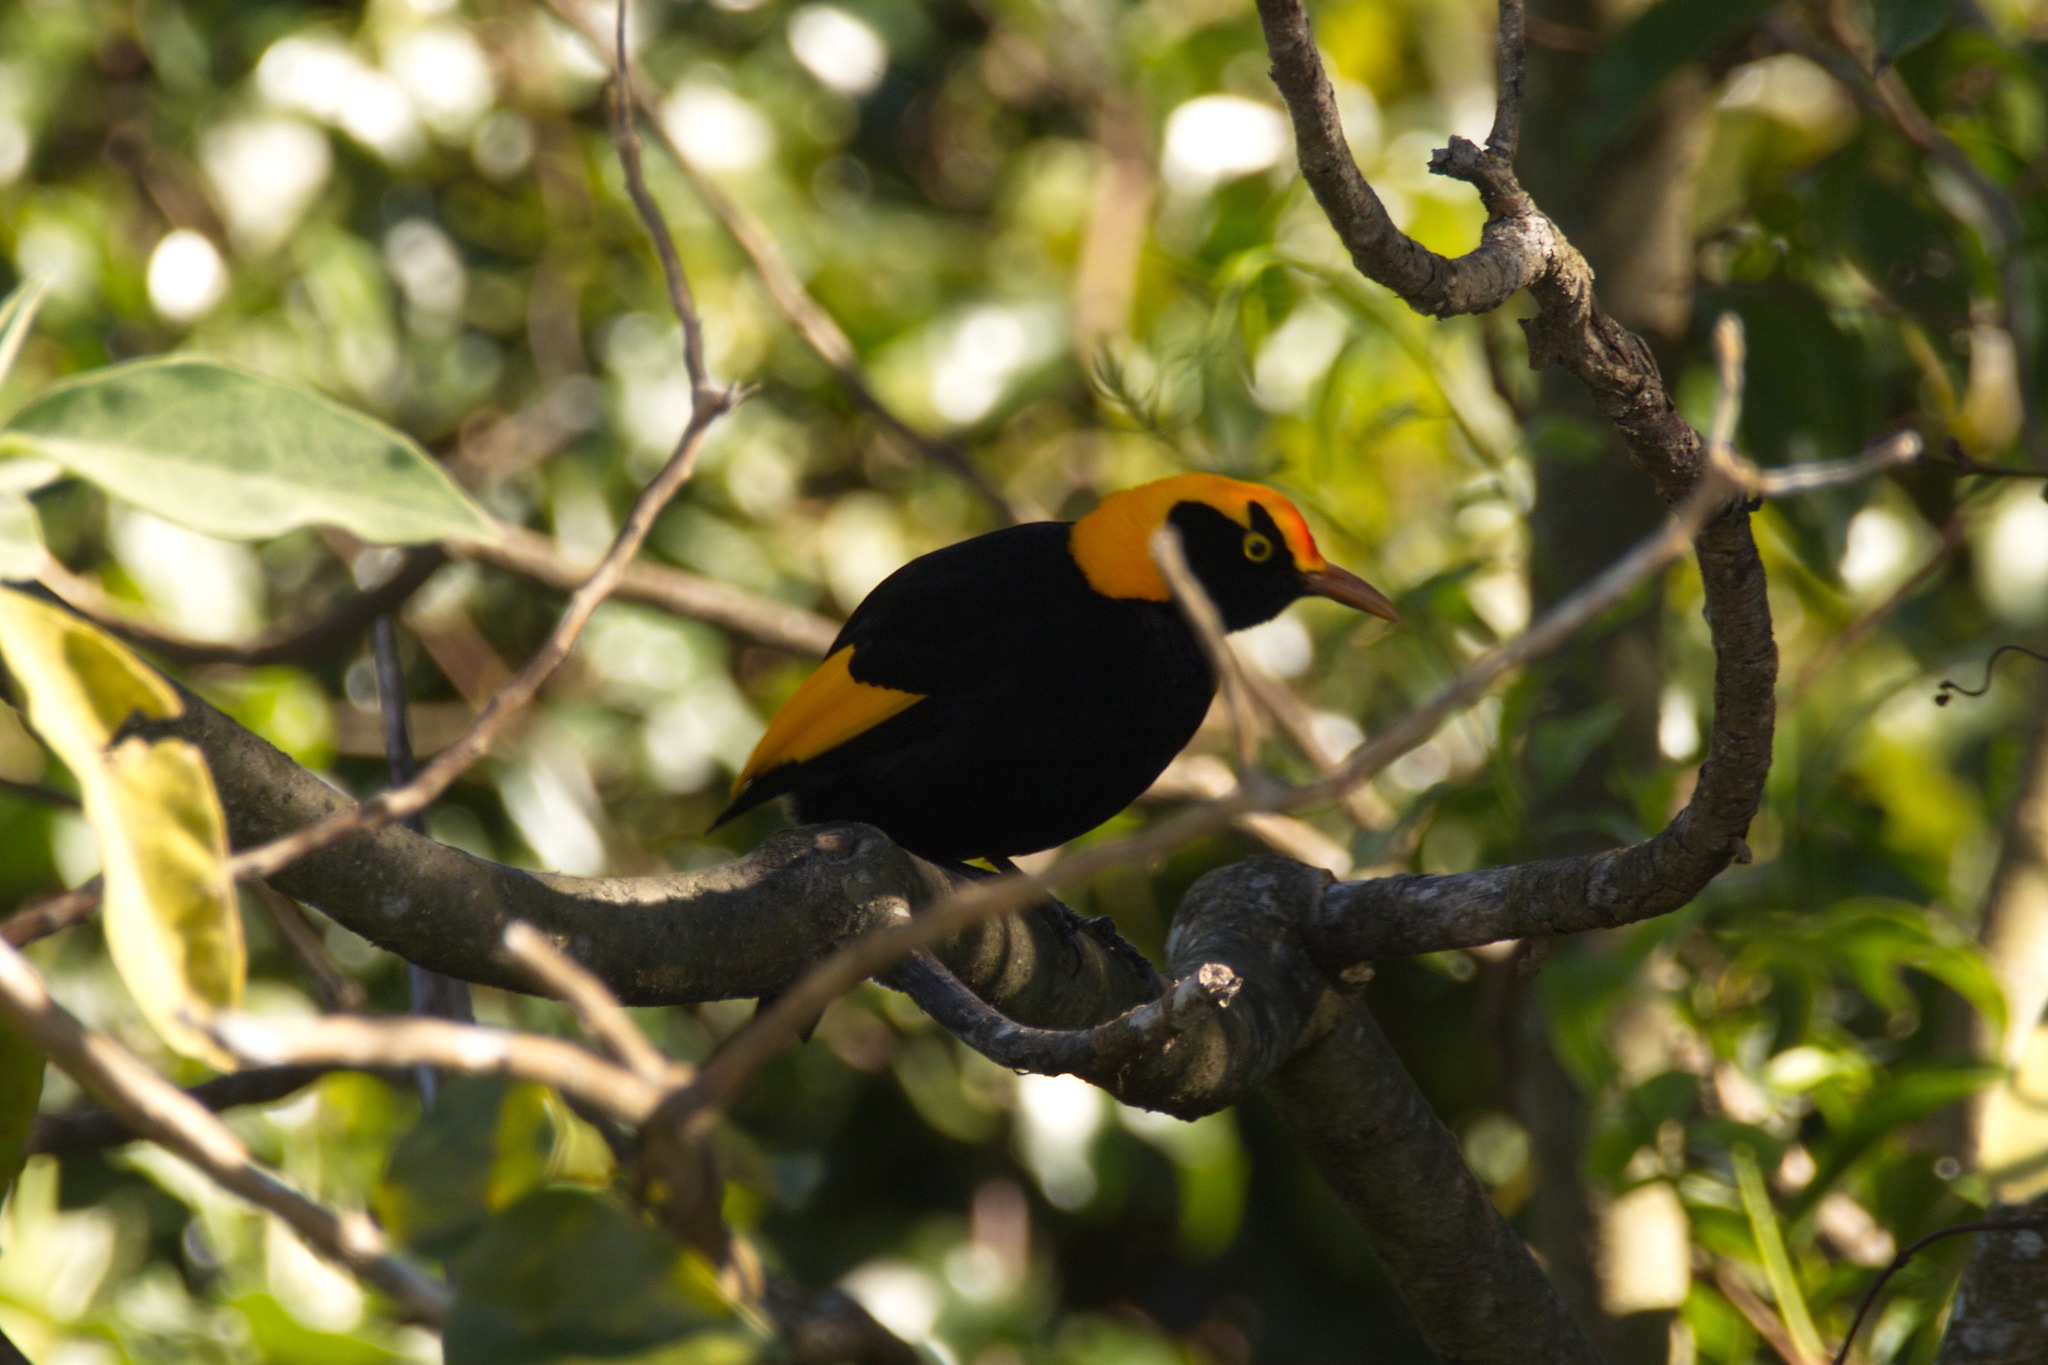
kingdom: Animalia
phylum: Chordata
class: Aves
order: Passeriformes
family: Ptilonorhynchidae
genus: Sericulus
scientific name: Sericulus chrysocephalus
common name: Regent bowerbird
